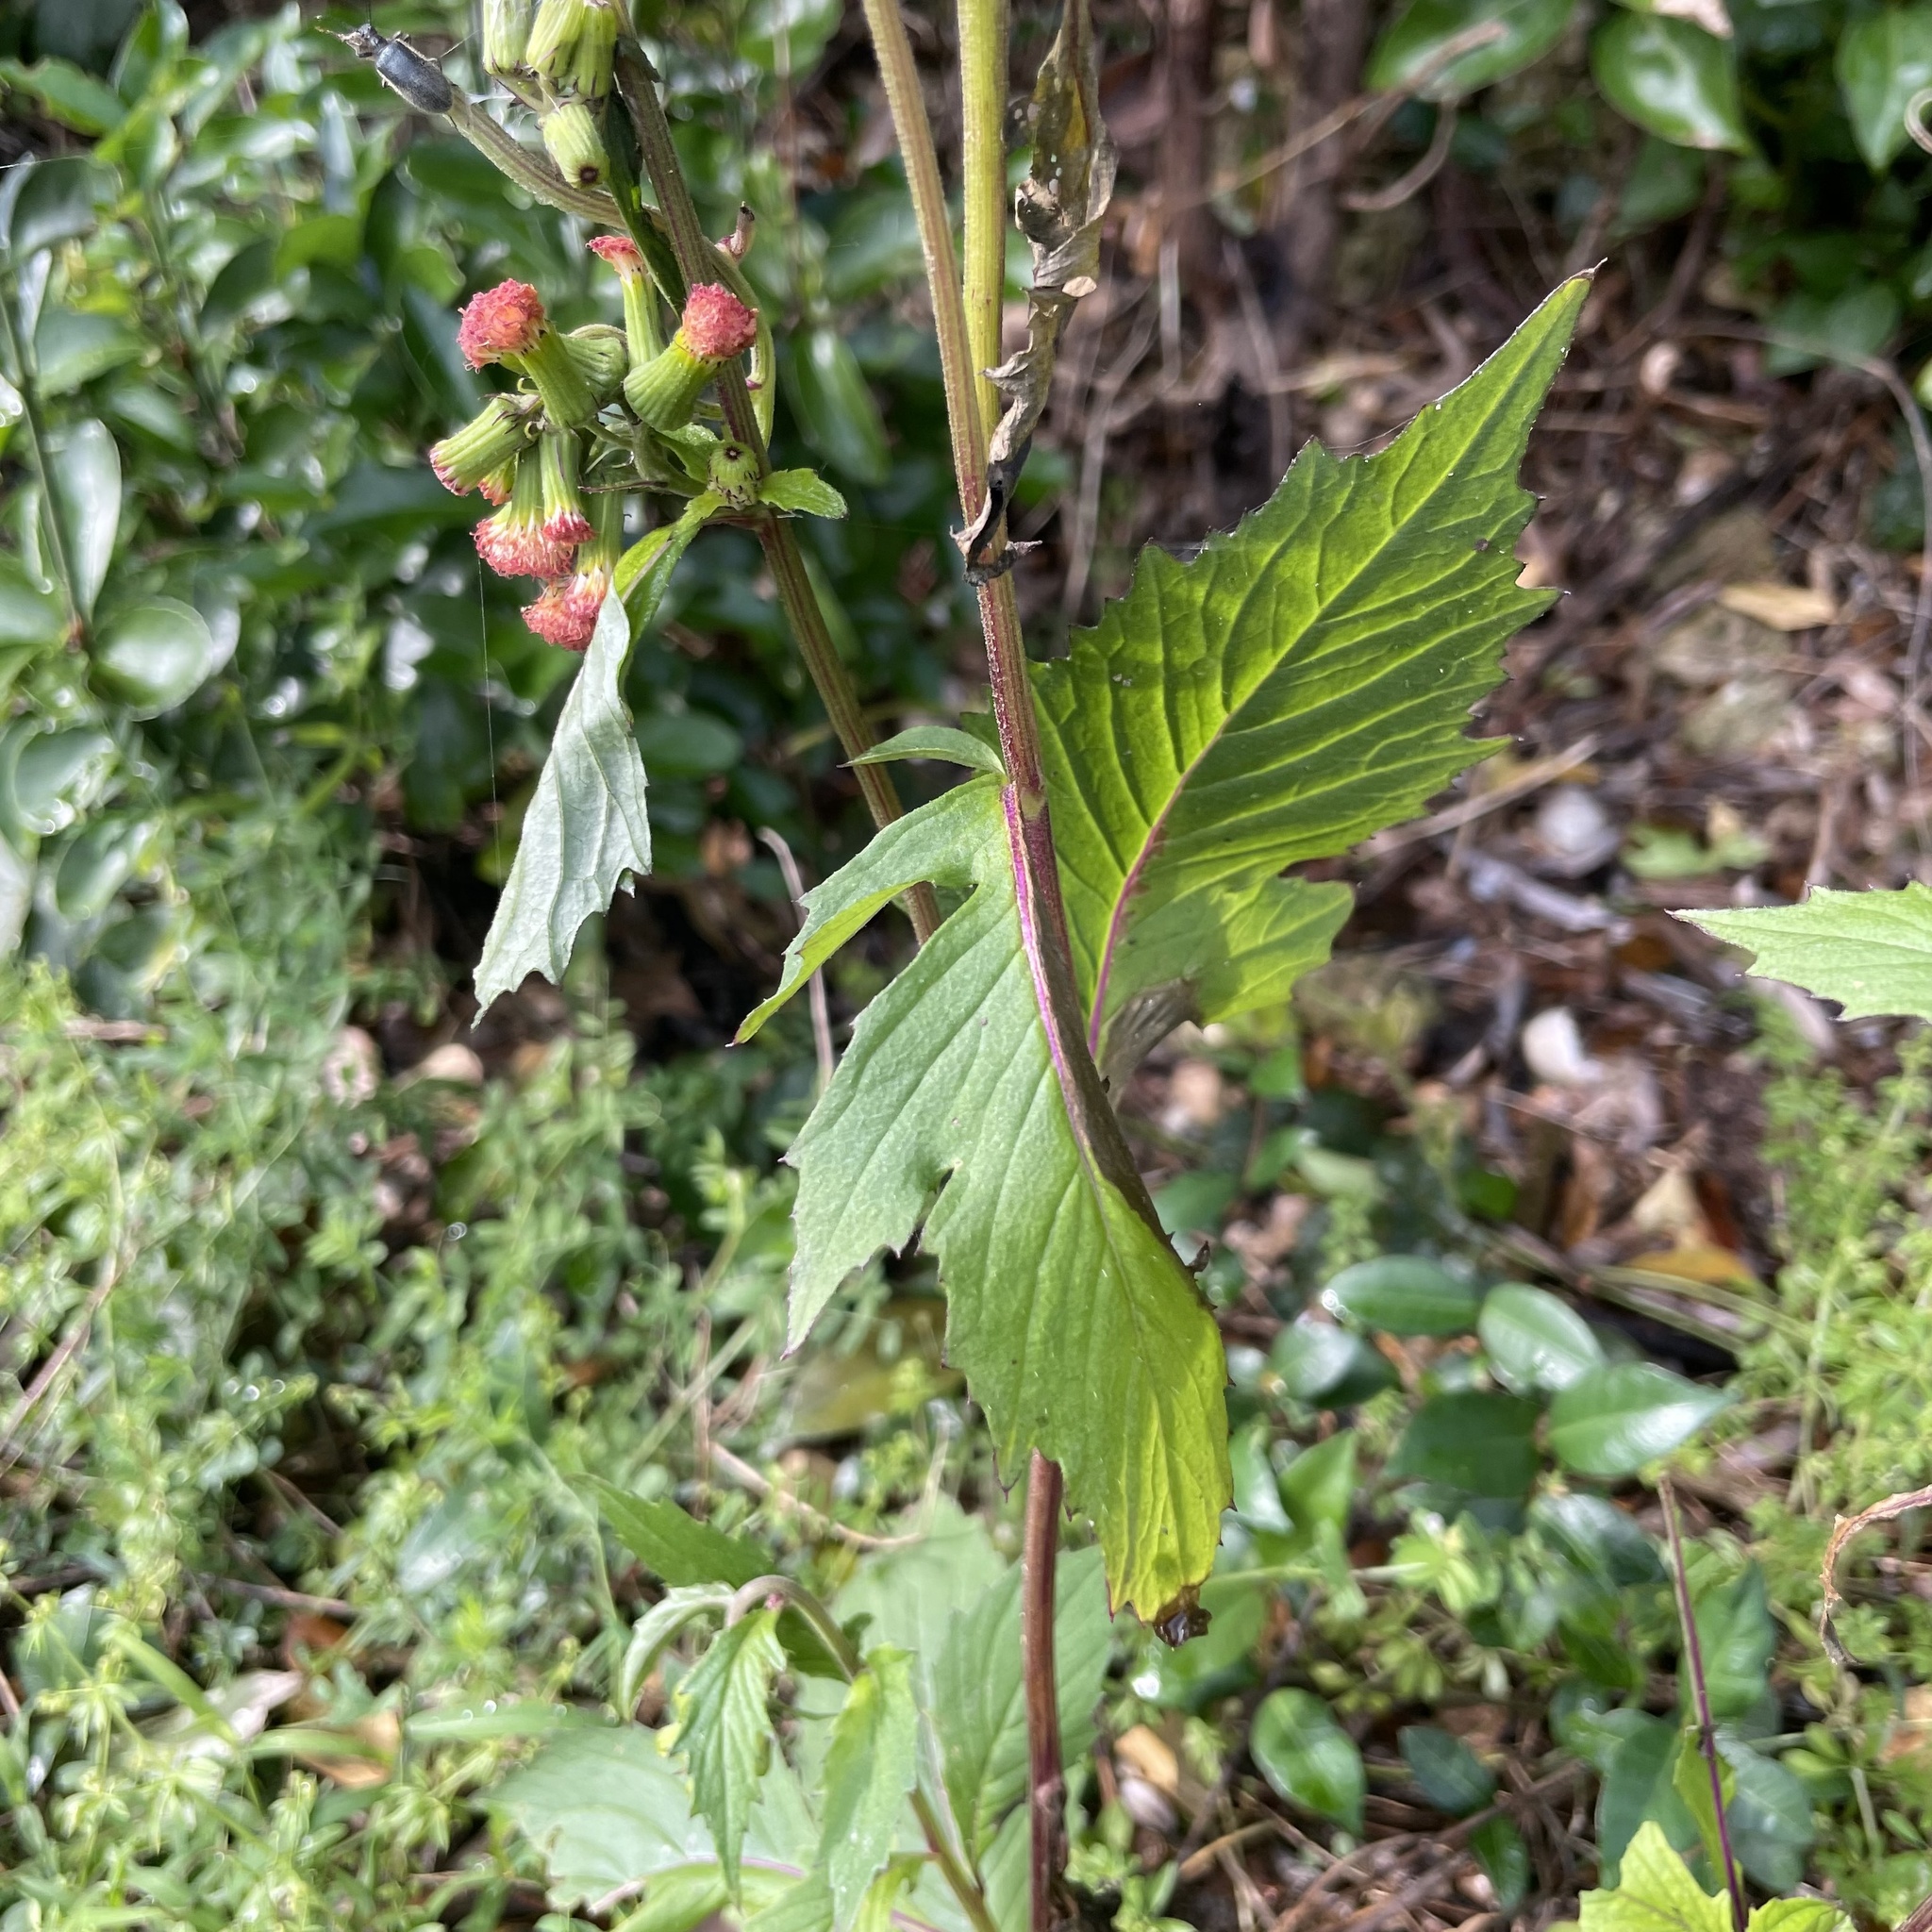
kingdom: Plantae
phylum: Tracheophyta
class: Magnoliopsida
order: Asterales
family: Asteraceae
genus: Crassocephalum
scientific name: Crassocephalum crepidioides
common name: Redflower ragleaf
